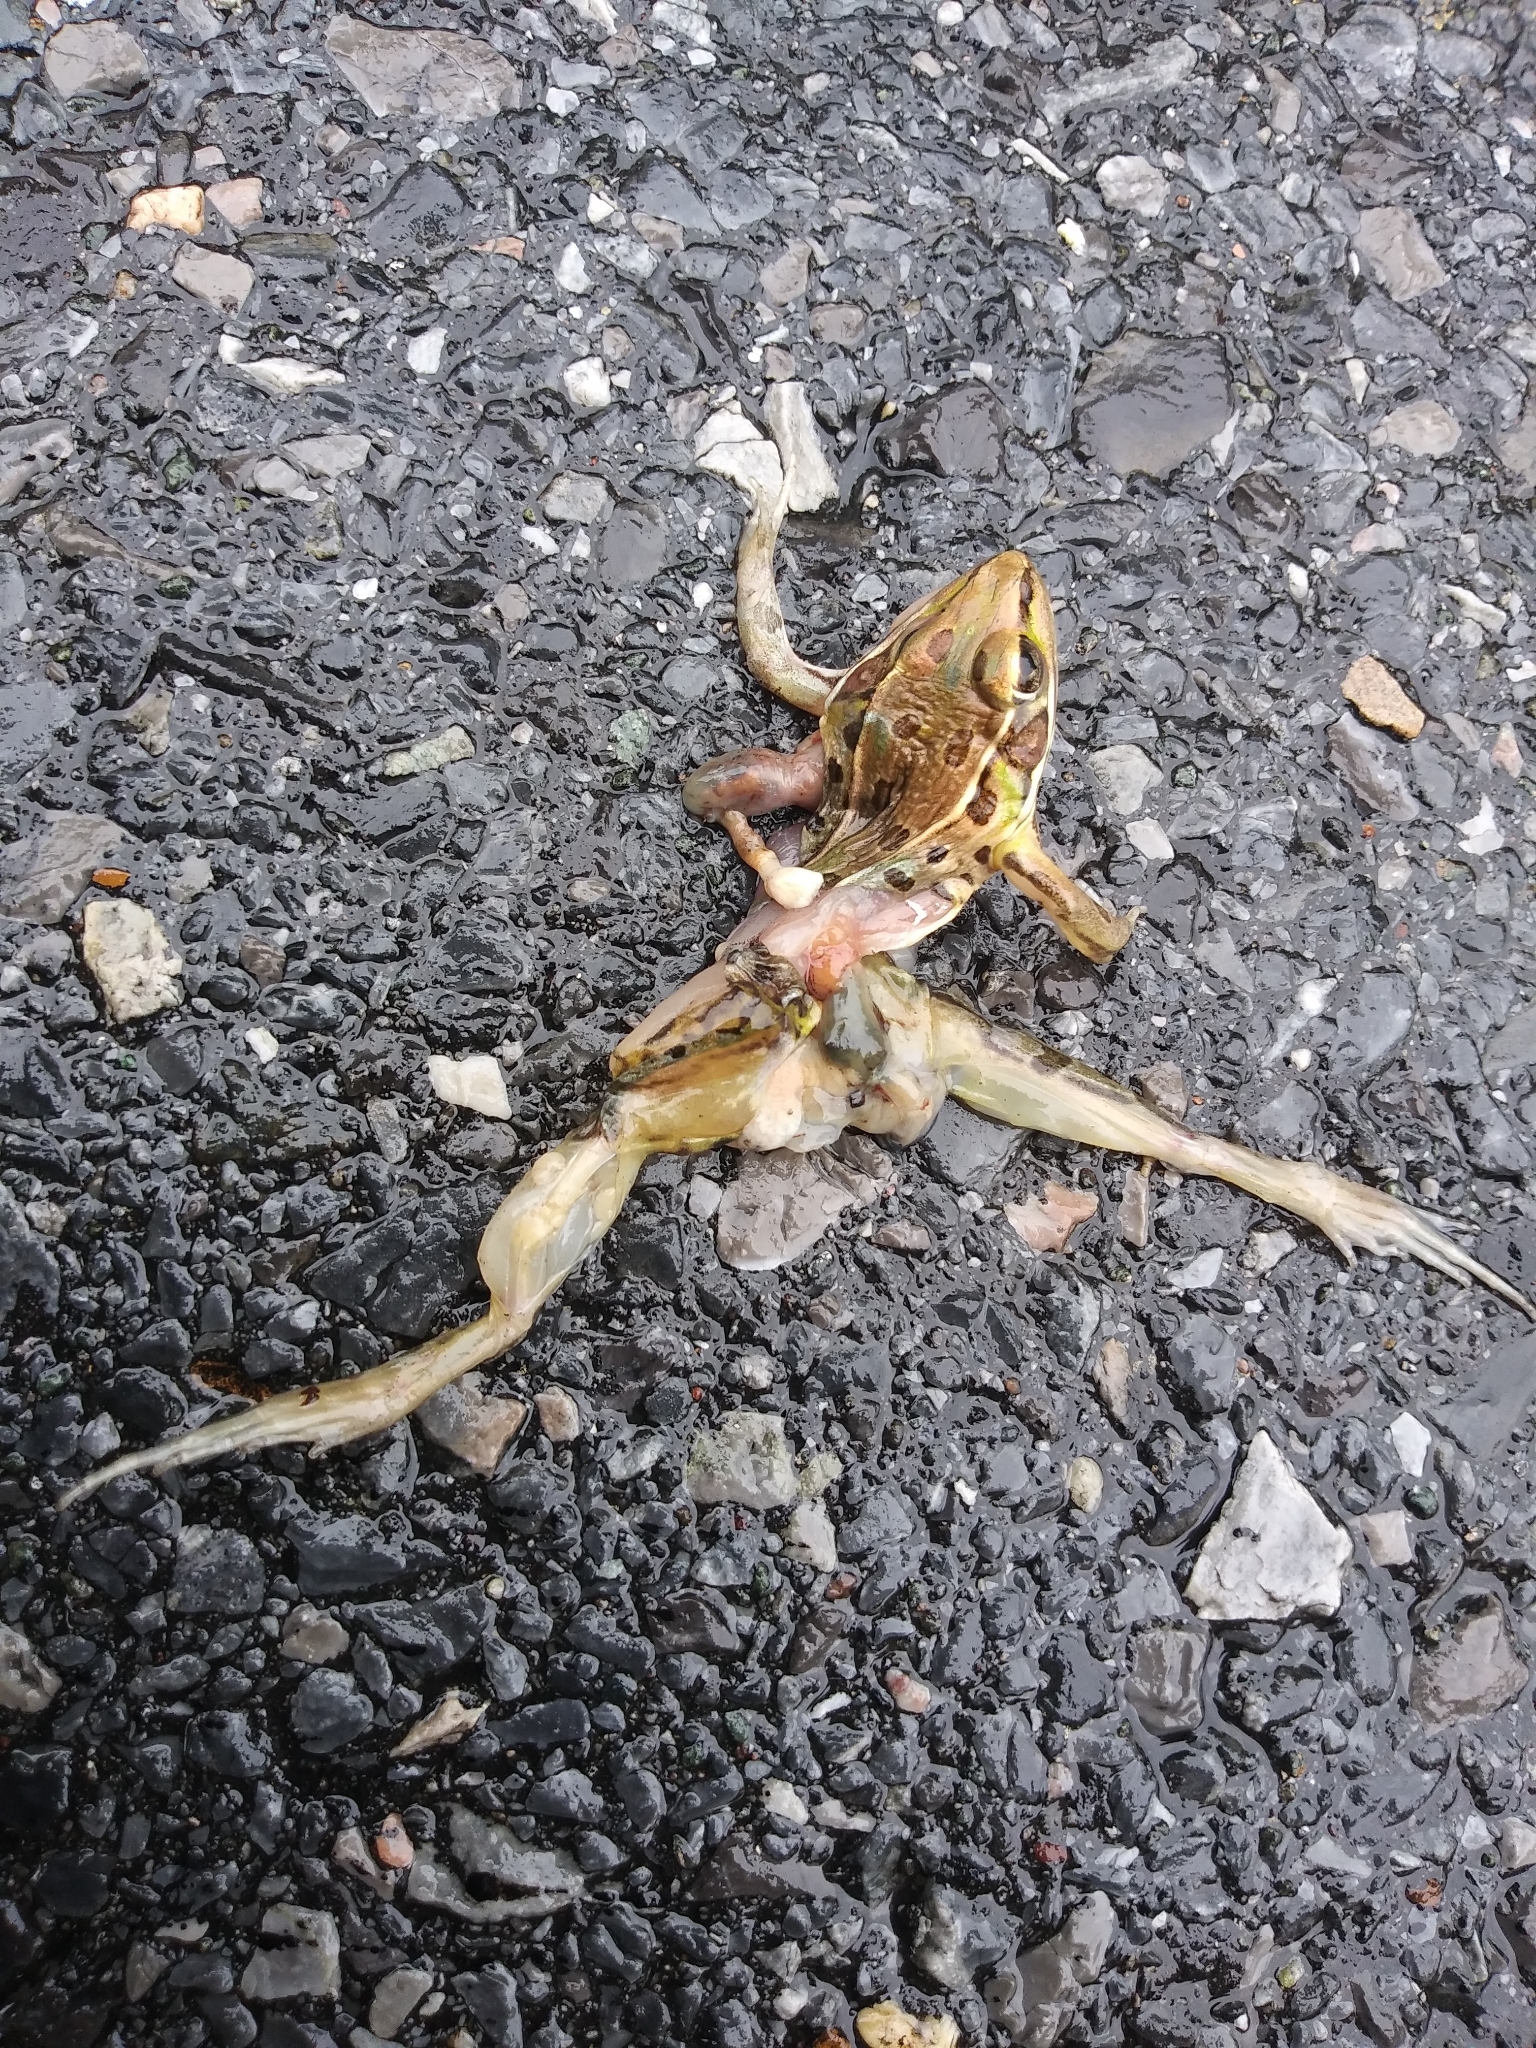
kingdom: Animalia
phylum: Chordata
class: Amphibia
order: Anura
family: Ranidae
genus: Lithobates
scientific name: Lithobates sphenocephalus
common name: Southern leopard frog
